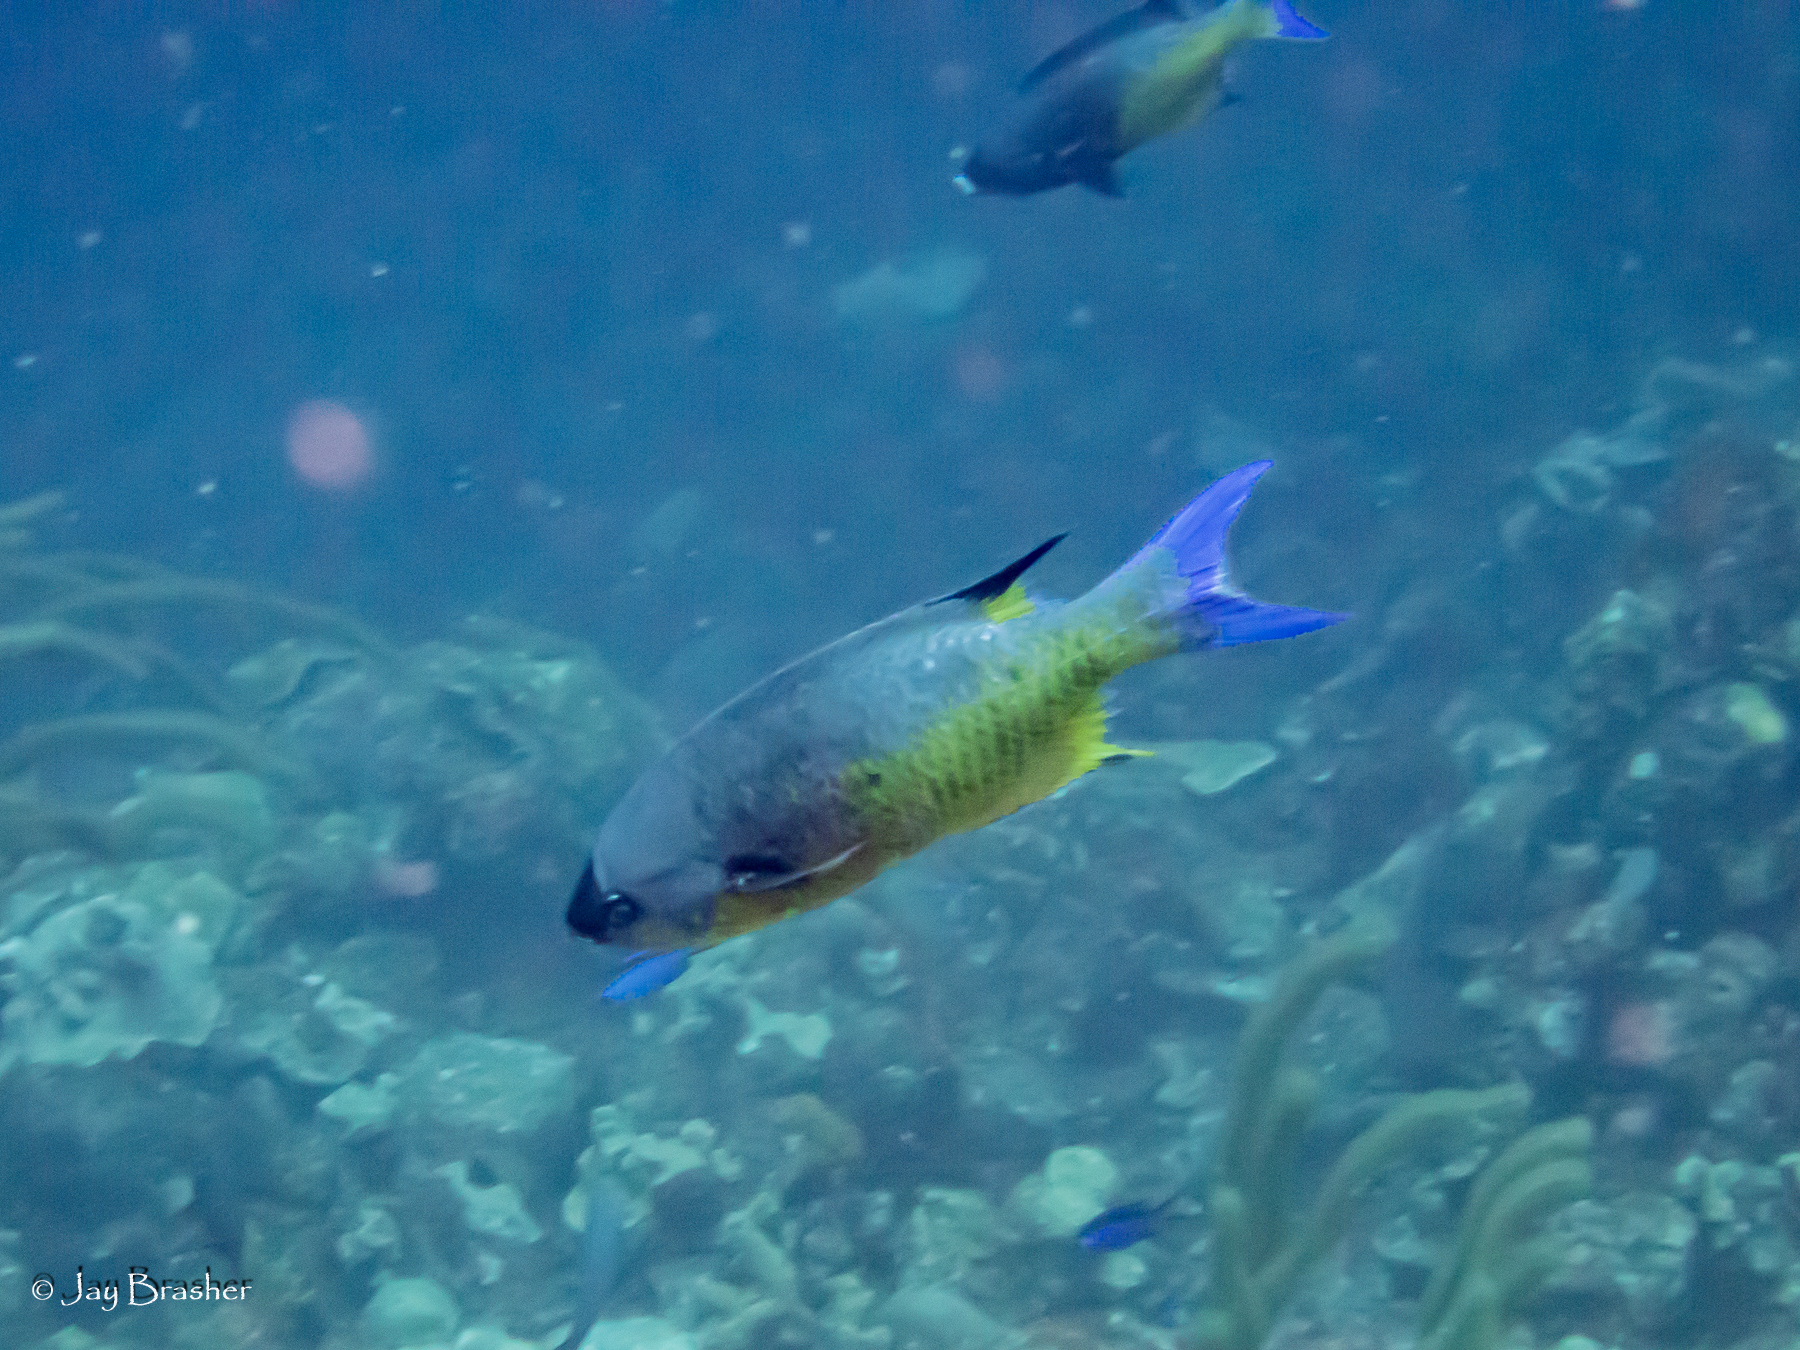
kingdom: Animalia
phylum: Chordata
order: Perciformes
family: Labridae
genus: Bodianus
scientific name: Bodianus
